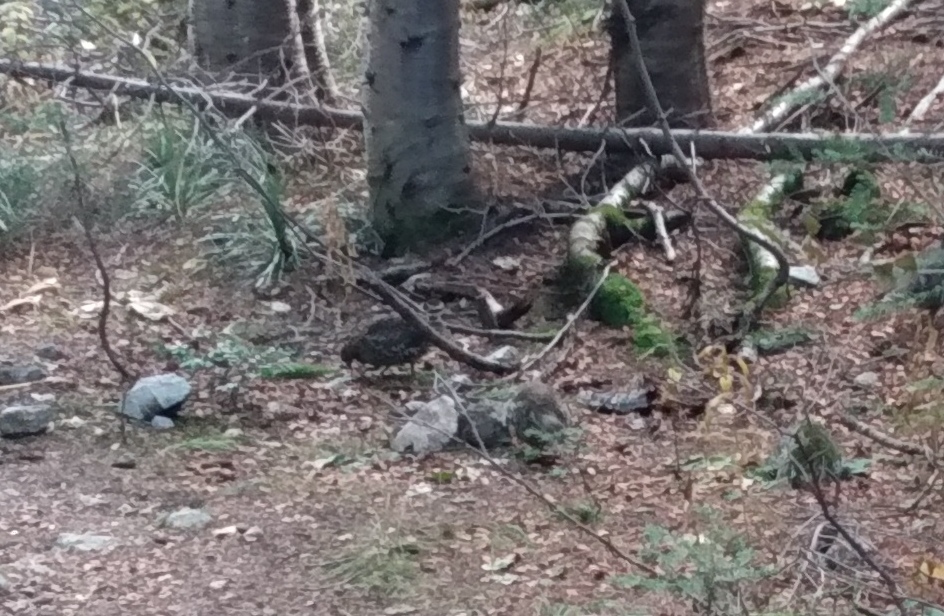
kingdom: Animalia
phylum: Chordata
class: Aves
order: Galliformes
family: Phasianidae
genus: Dendragapus
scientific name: Dendragapus obscurus
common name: Dusky grouse
